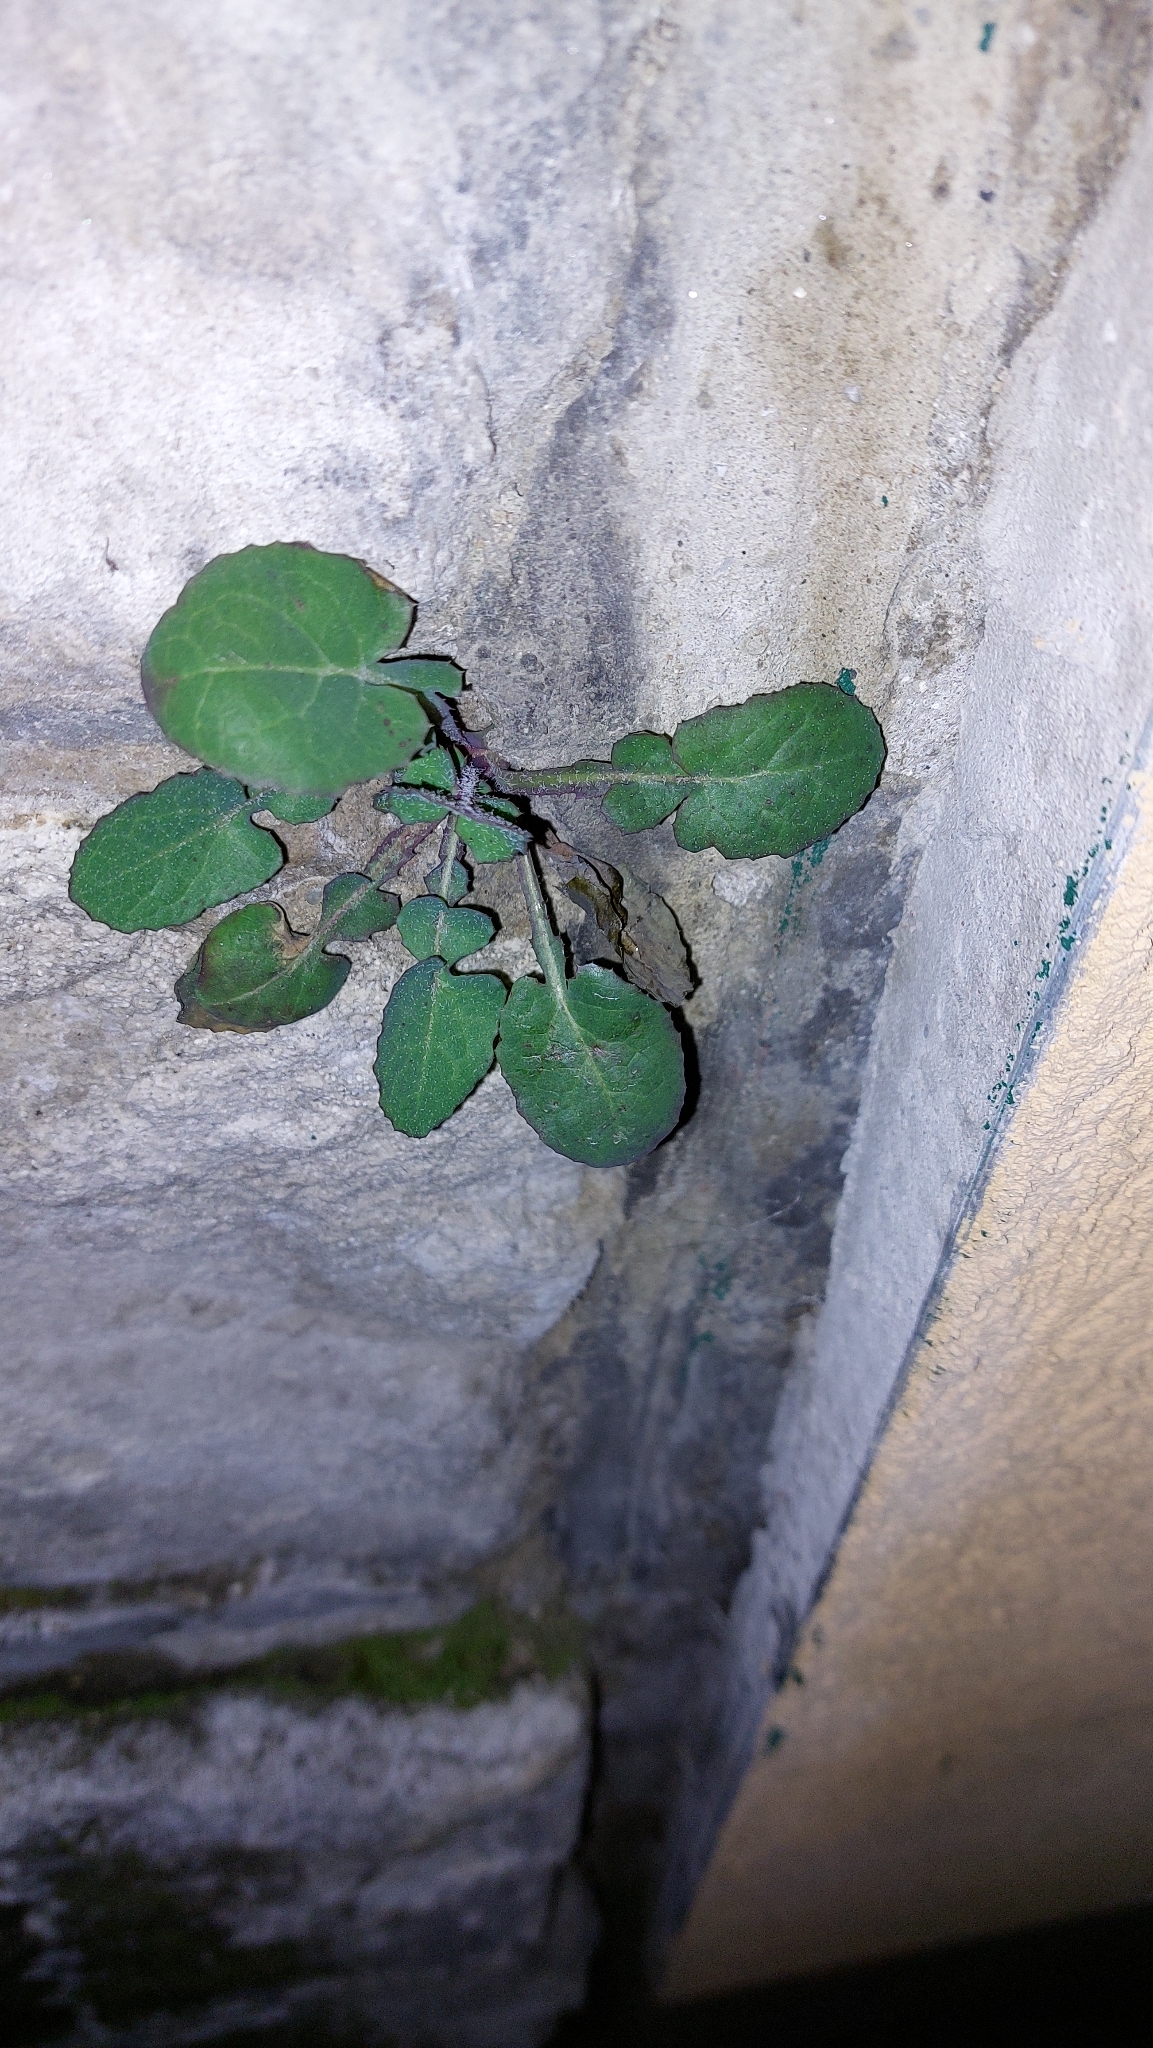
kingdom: Plantae
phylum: Tracheophyta
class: Magnoliopsida
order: Asterales
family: Asteraceae
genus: Sonchus
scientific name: Sonchus oleraceus
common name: Common sowthistle
